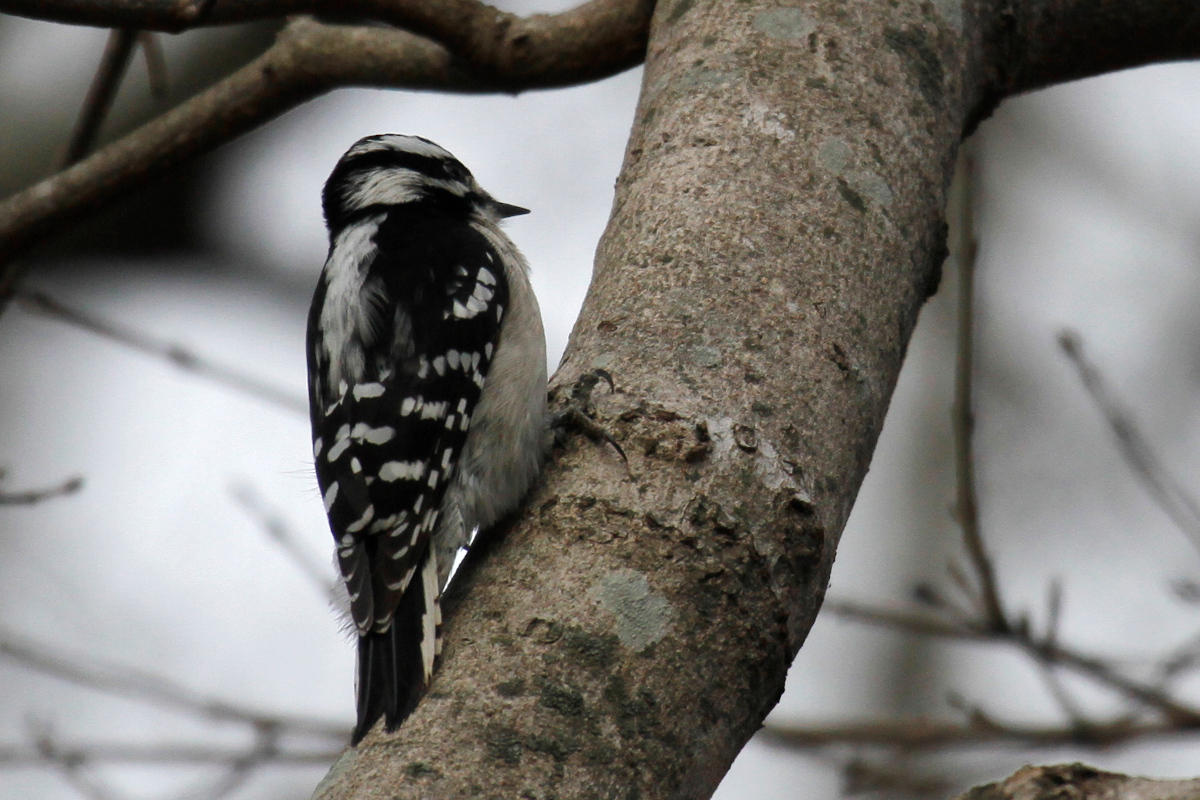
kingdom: Animalia
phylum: Chordata
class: Aves
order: Piciformes
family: Picidae
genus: Dryobates
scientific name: Dryobates pubescens
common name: Downy woodpecker
